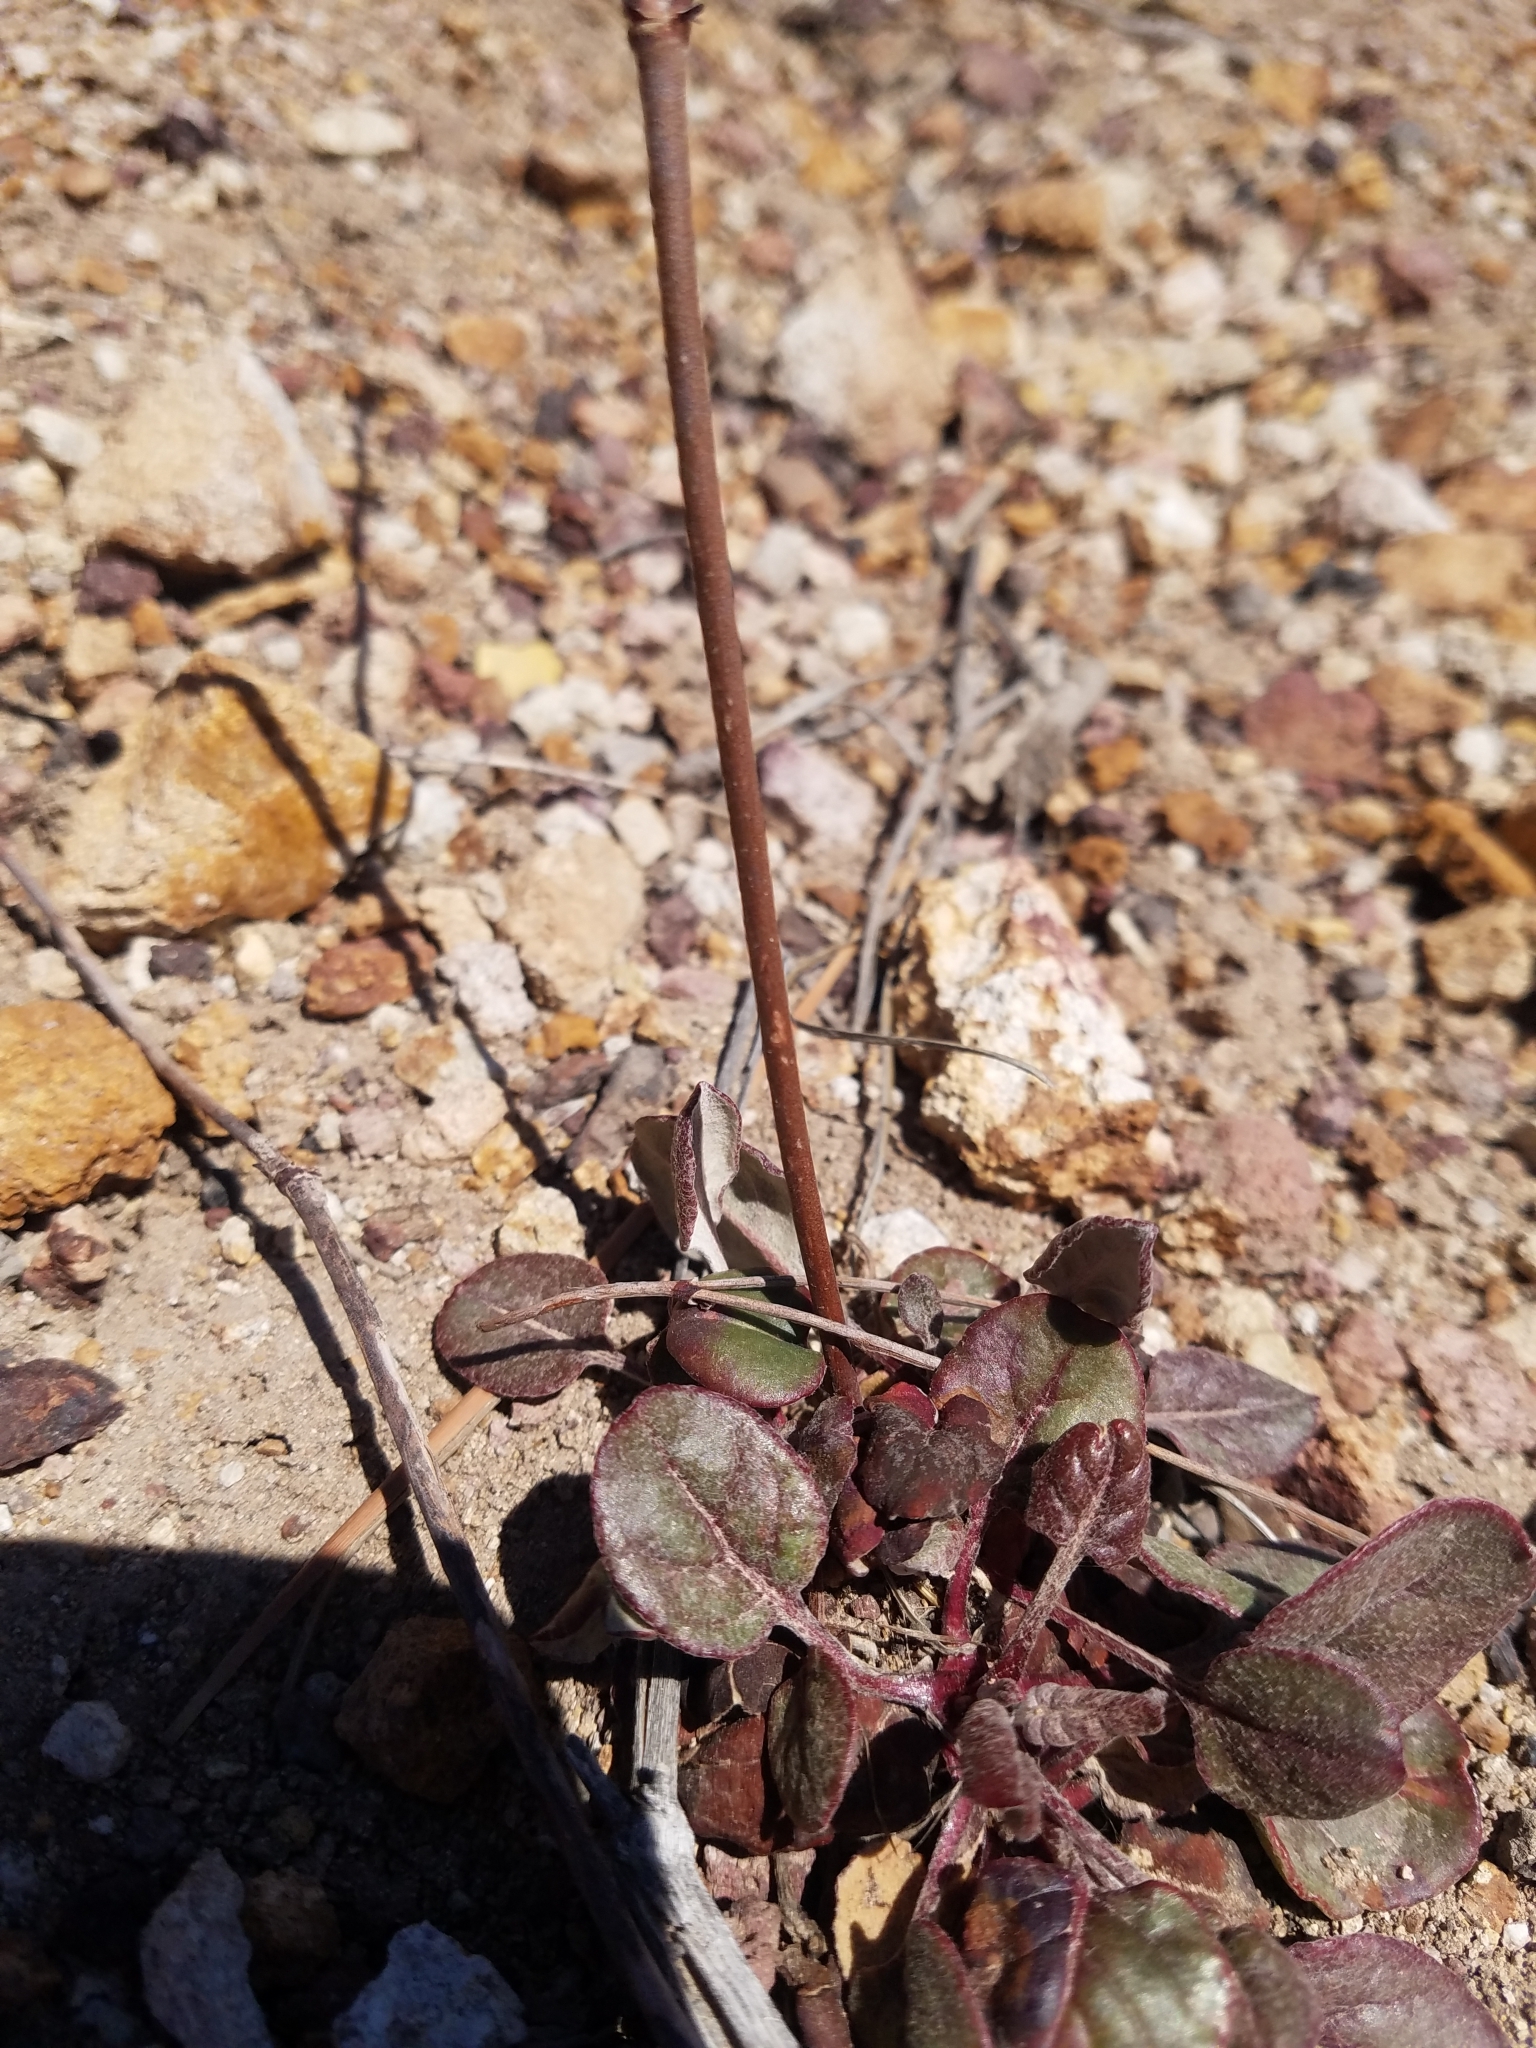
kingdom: Plantae
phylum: Tracheophyta
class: Magnoliopsida
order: Caryophyllales
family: Polygonaceae
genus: Eriogonum
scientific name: Eriogonum nudum
